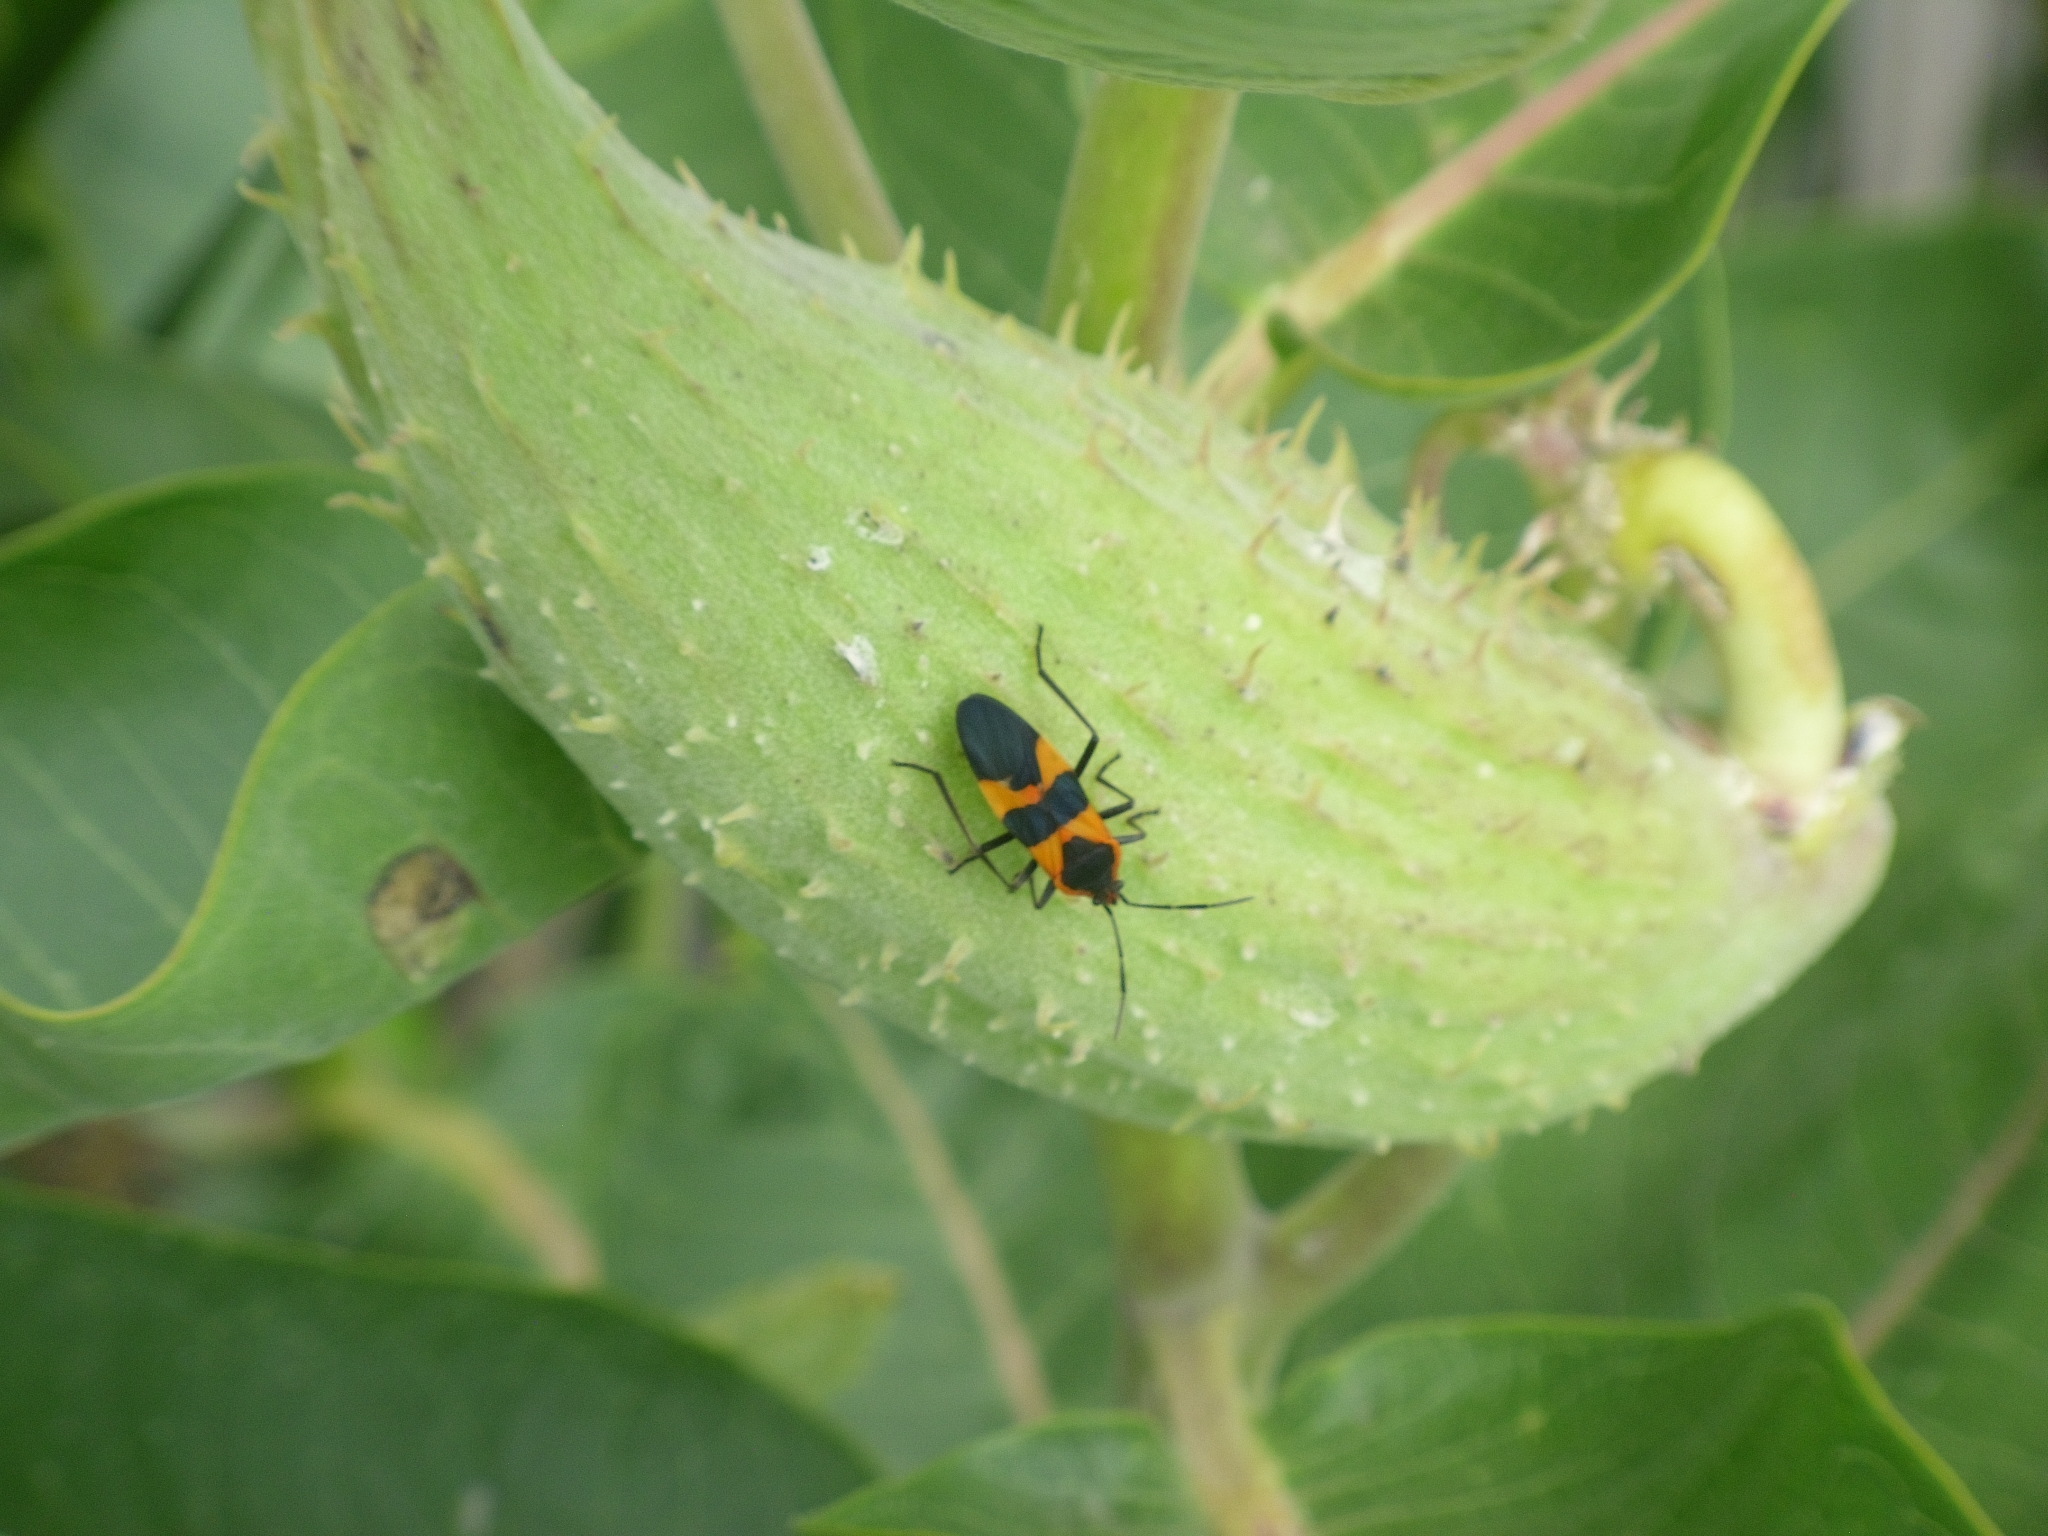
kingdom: Animalia
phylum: Arthropoda
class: Insecta
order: Hemiptera
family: Lygaeidae
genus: Oncopeltus
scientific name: Oncopeltus fasciatus
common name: Large milkweed bug
